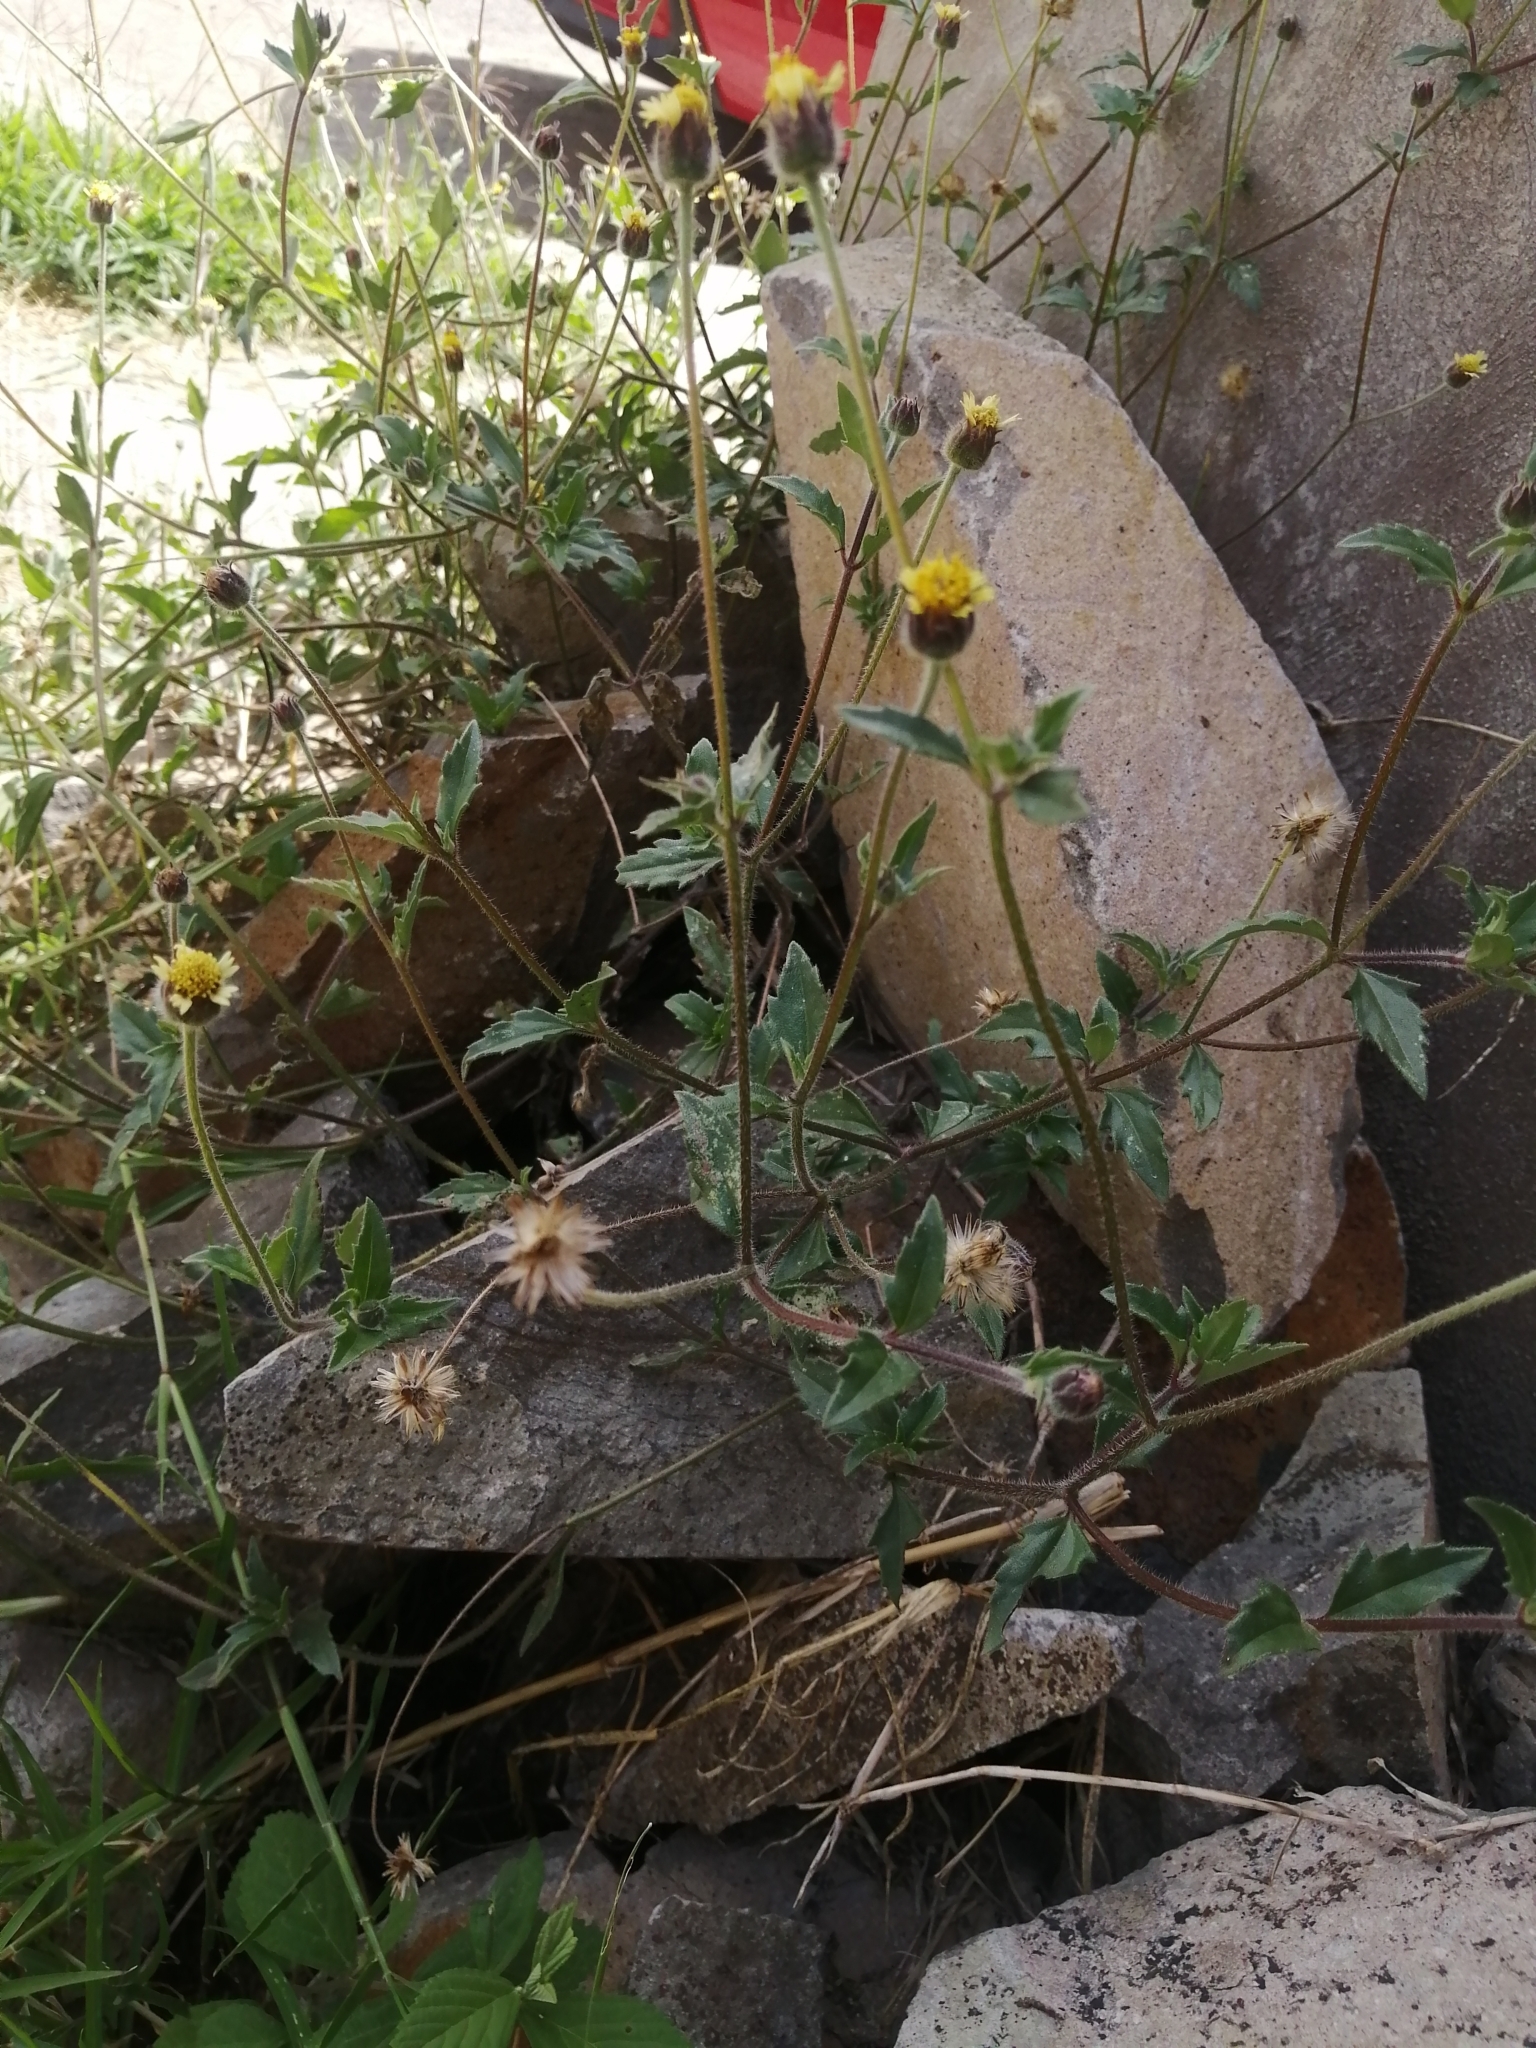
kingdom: Plantae
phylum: Tracheophyta
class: Magnoliopsida
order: Asterales
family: Asteraceae
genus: Tridax
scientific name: Tridax procumbens
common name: Coatbuttons
